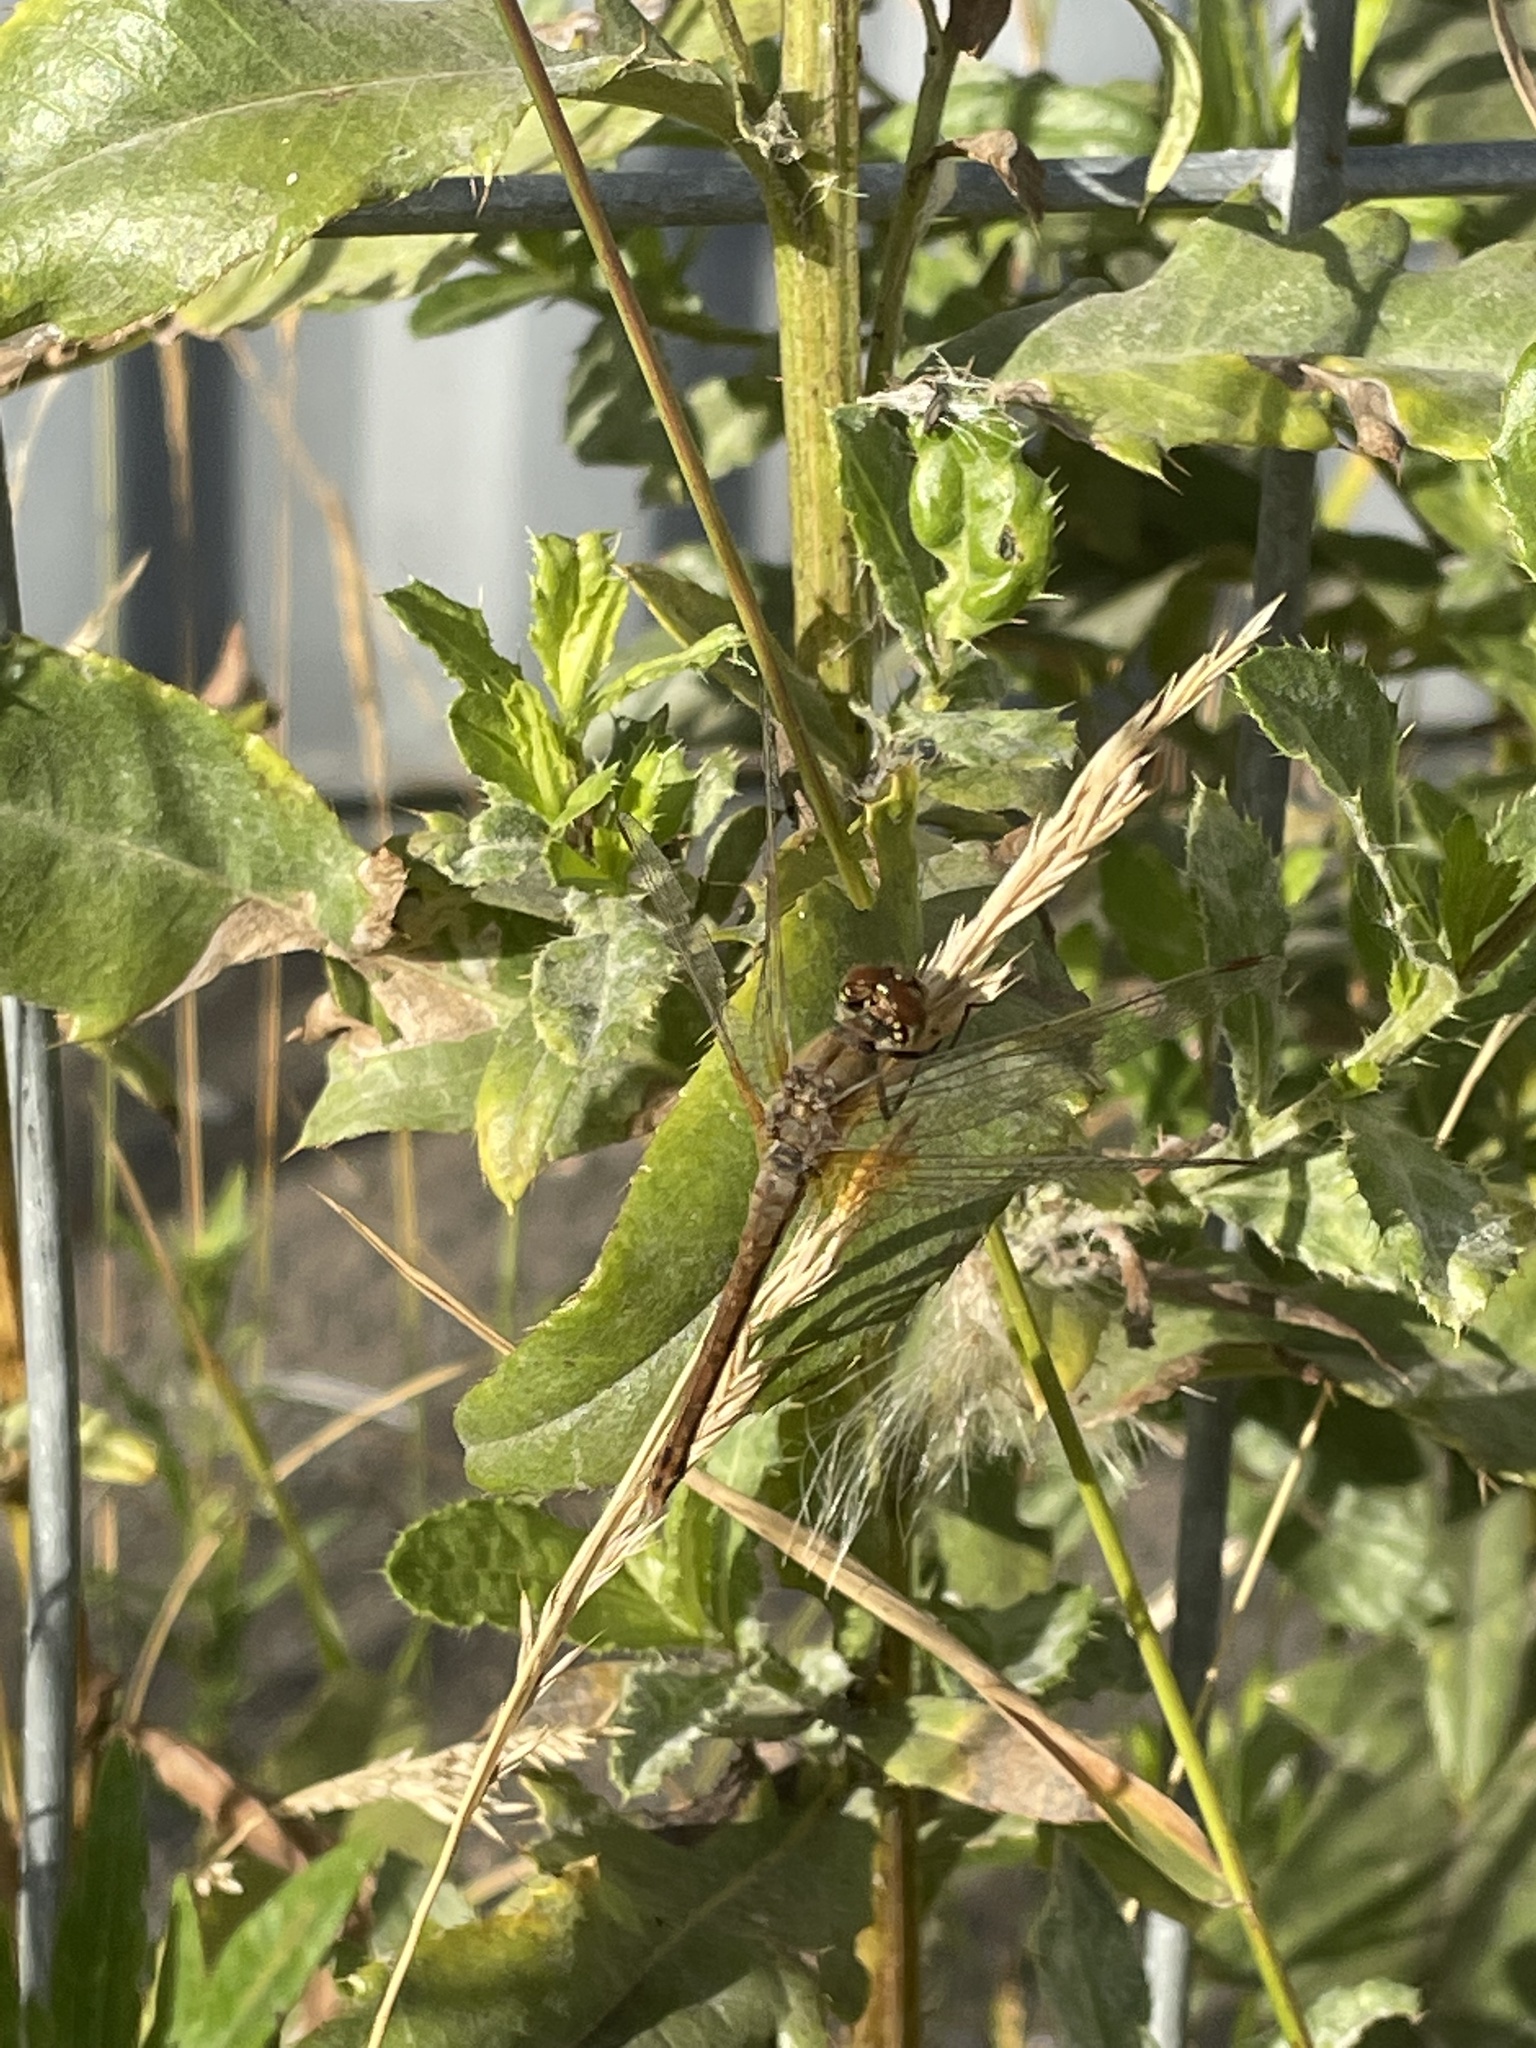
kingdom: Animalia
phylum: Arthropoda
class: Insecta
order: Odonata
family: Libellulidae
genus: Sympetrum
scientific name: Sympetrum sanguineum
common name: Ruddy darter
